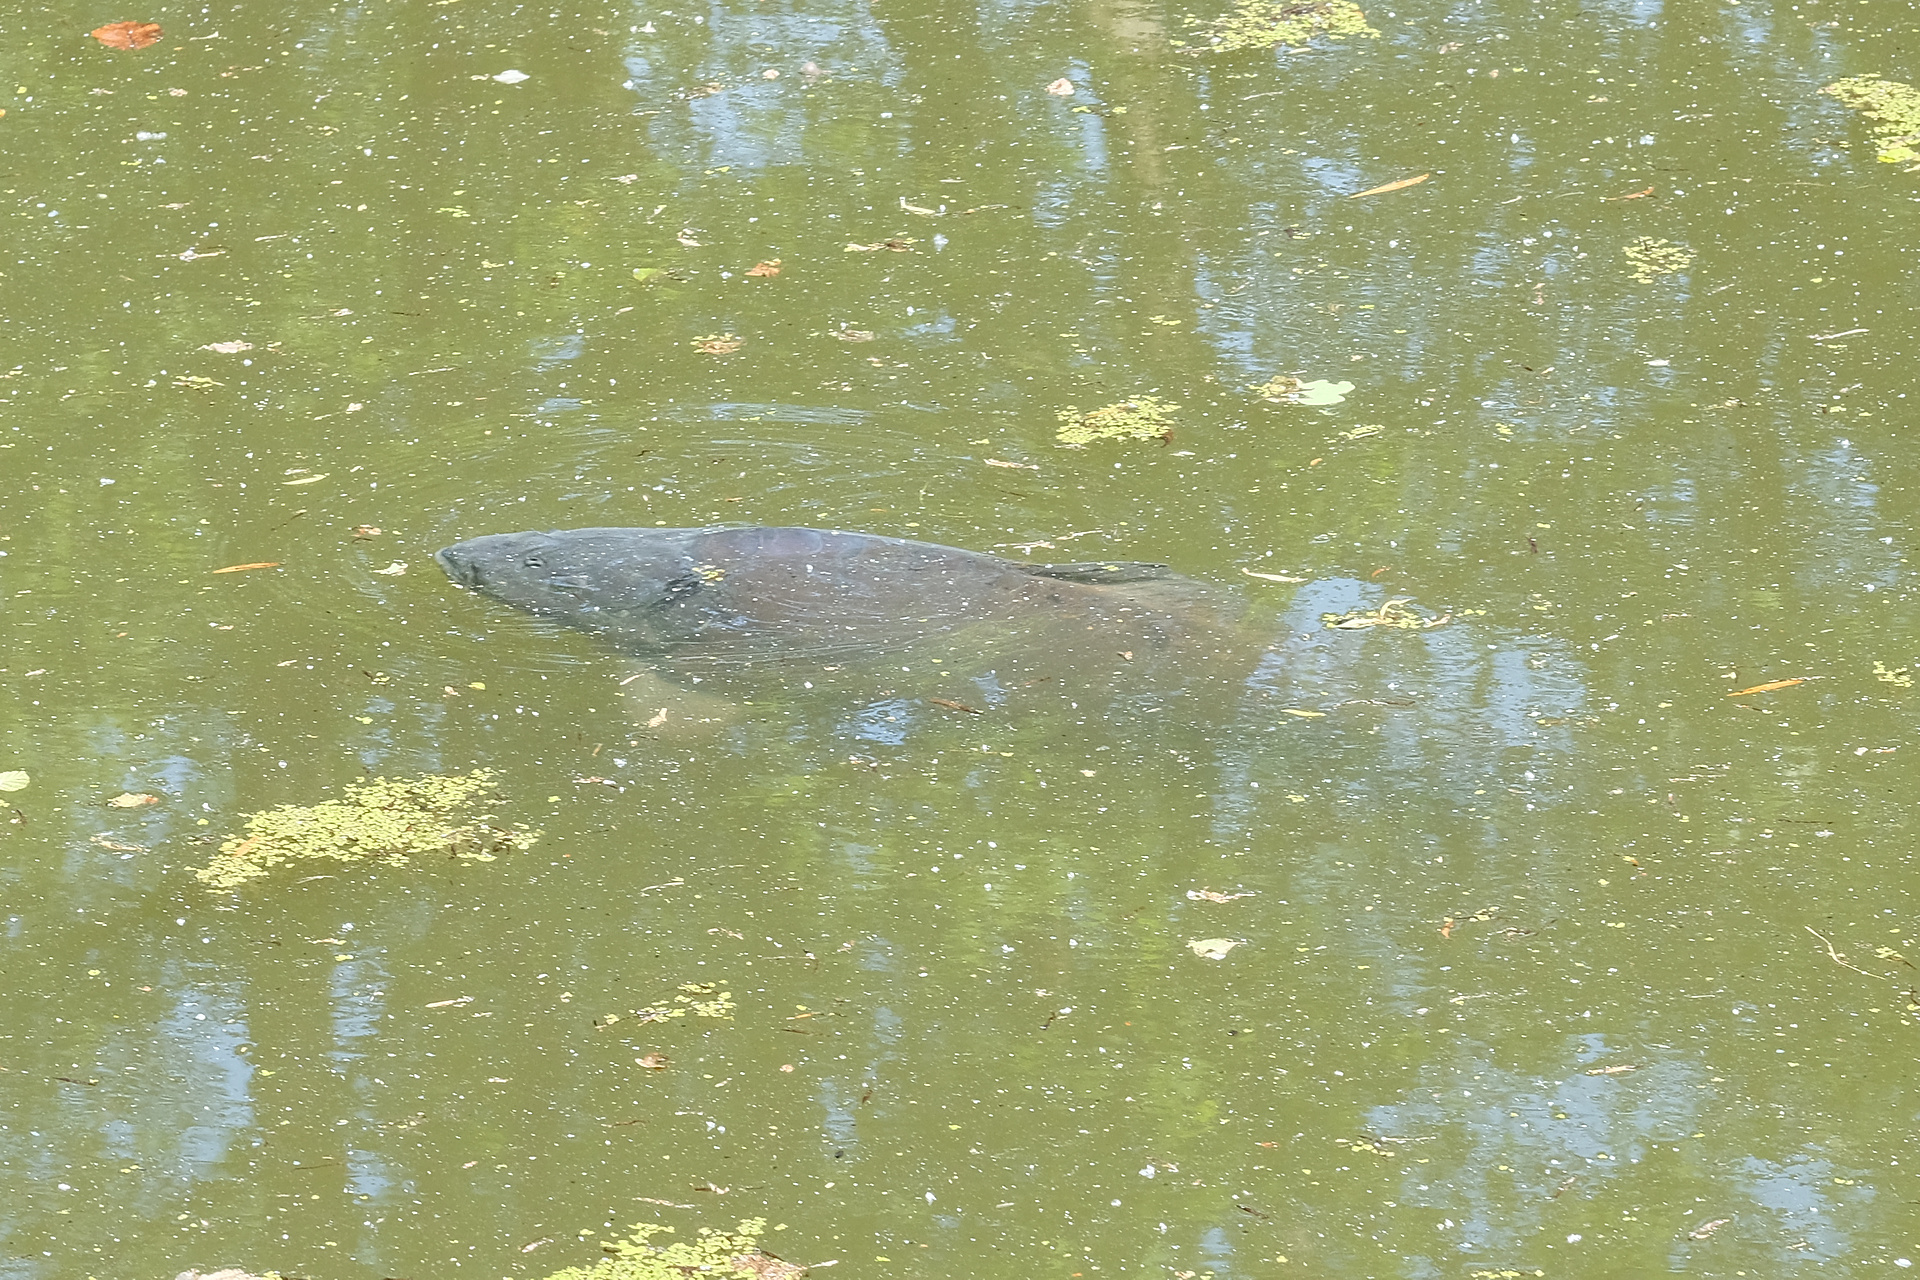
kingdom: Animalia
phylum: Chordata
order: Cypriniformes
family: Cyprinidae
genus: Cyprinus
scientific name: Cyprinus carpio
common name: Common carp
